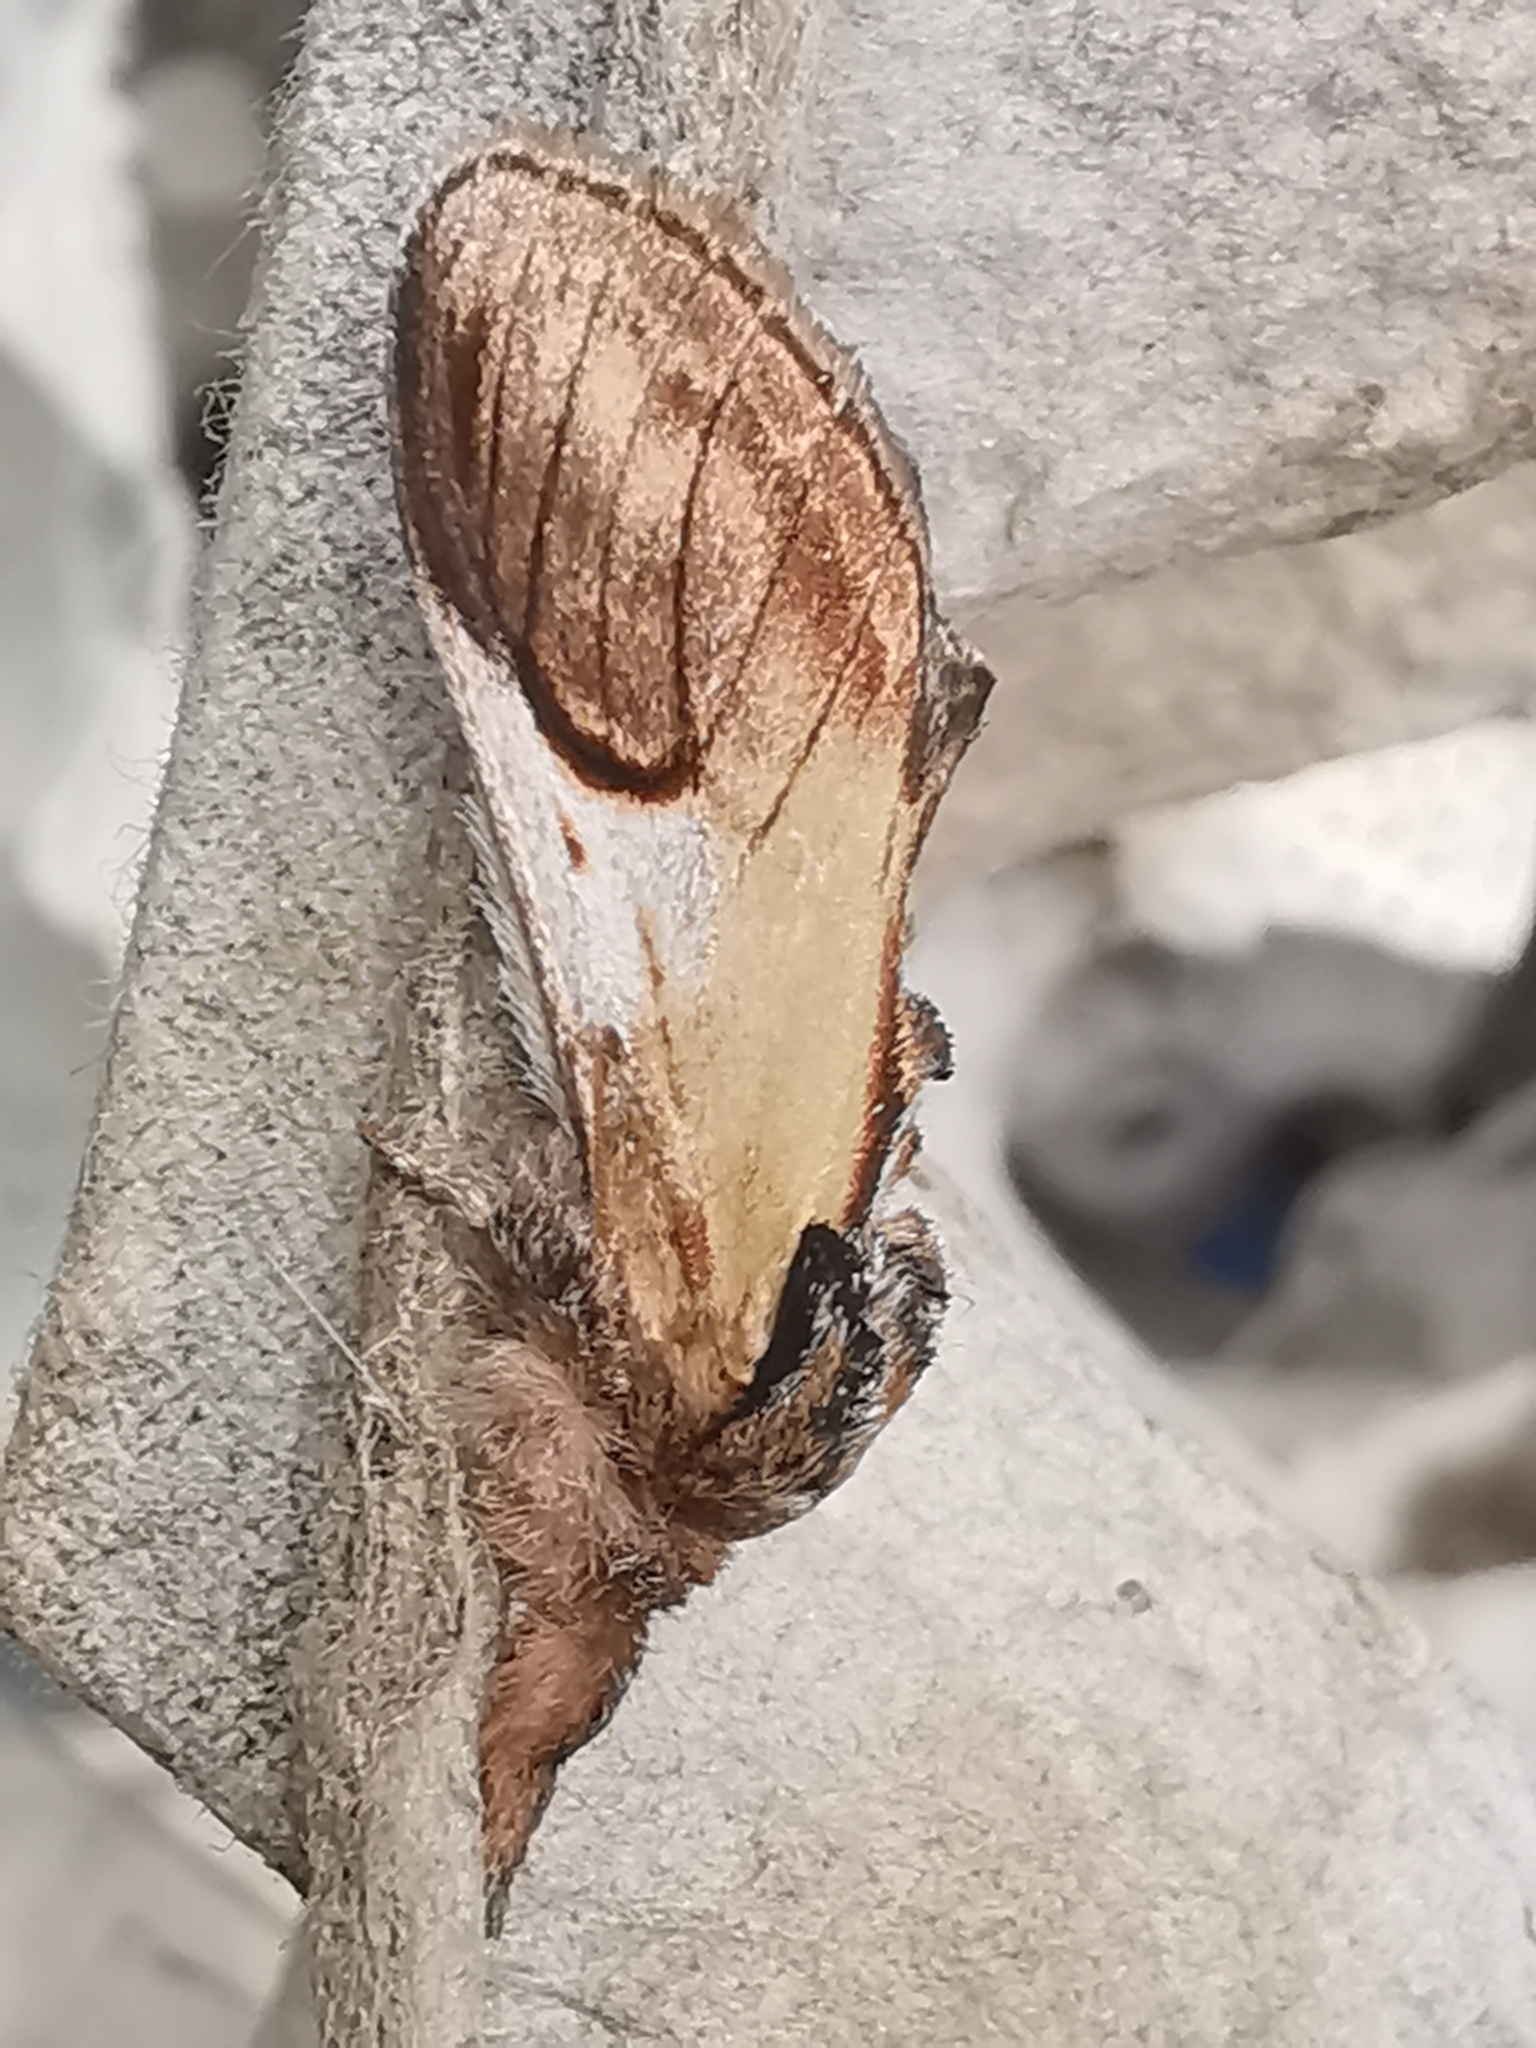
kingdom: Animalia
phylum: Arthropoda
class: Insecta
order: Lepidoptera
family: Notodontidae
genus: Notodonta
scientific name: Notodonta ziczac
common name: Pebble prominent
